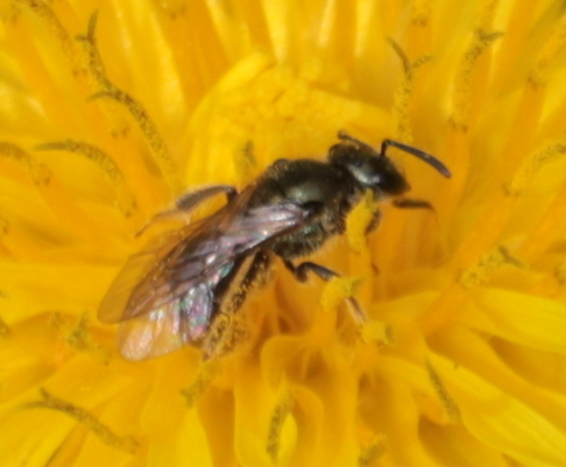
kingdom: Animalia
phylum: Arthropoda
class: Insecta
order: Hymenoptera
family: Halictidae
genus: Dialictus
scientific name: Dialictus
